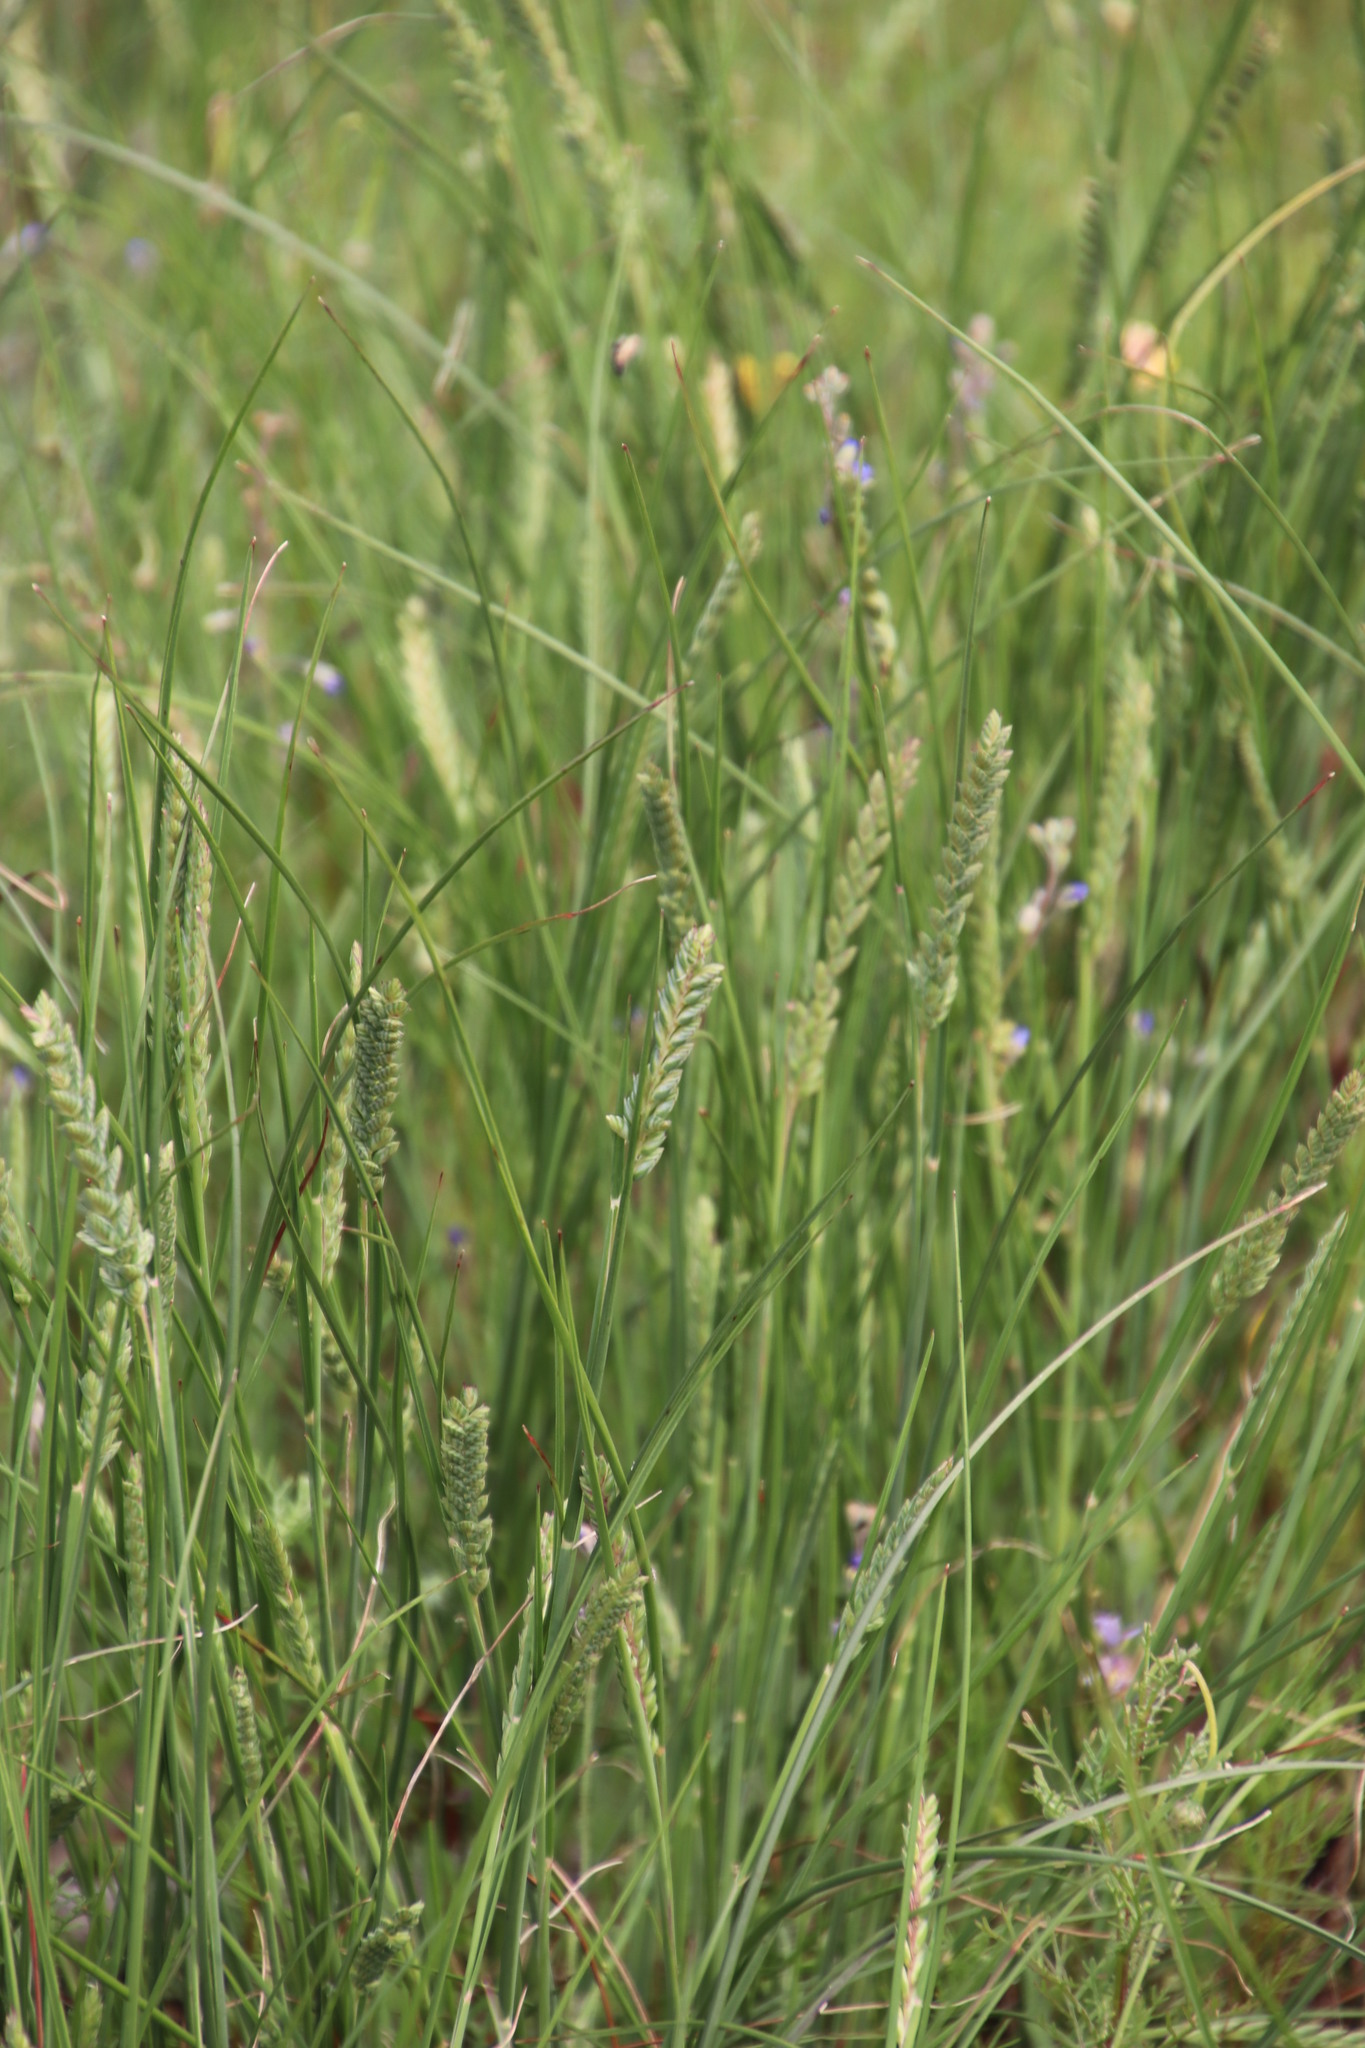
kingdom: Plantae
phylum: Tracheophyta
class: Liliopsida
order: Poales
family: Poaceae
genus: Tribolium
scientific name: Tribolium uniolae
